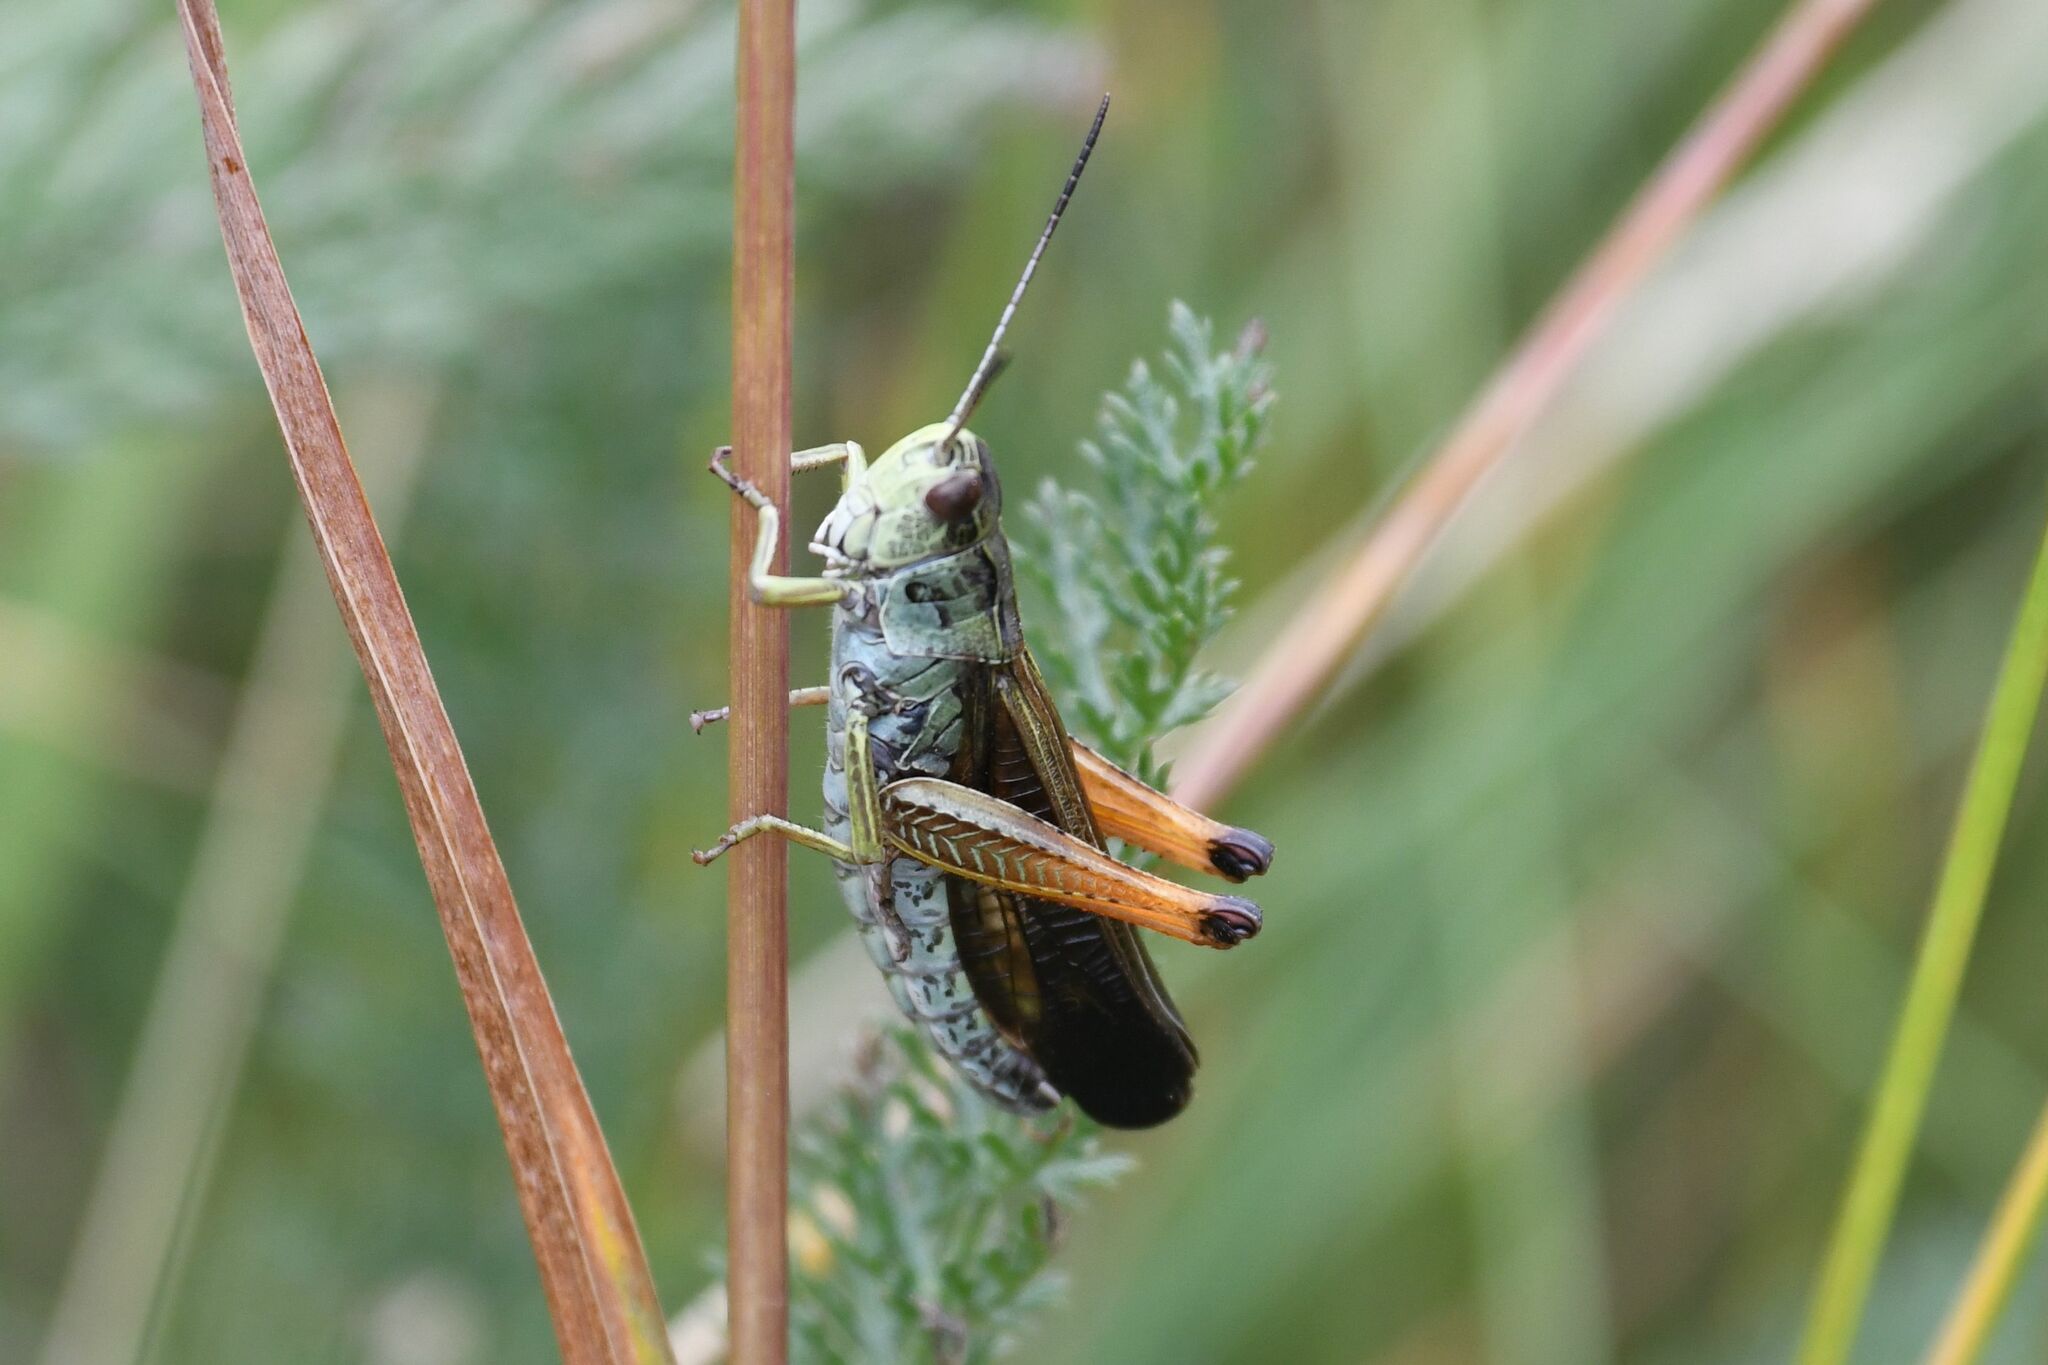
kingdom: Animalia
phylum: Arthropoda
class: Insecta
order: Orthoptera
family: Acrididae
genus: Stauroderus
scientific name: Stauroderus scalaris
